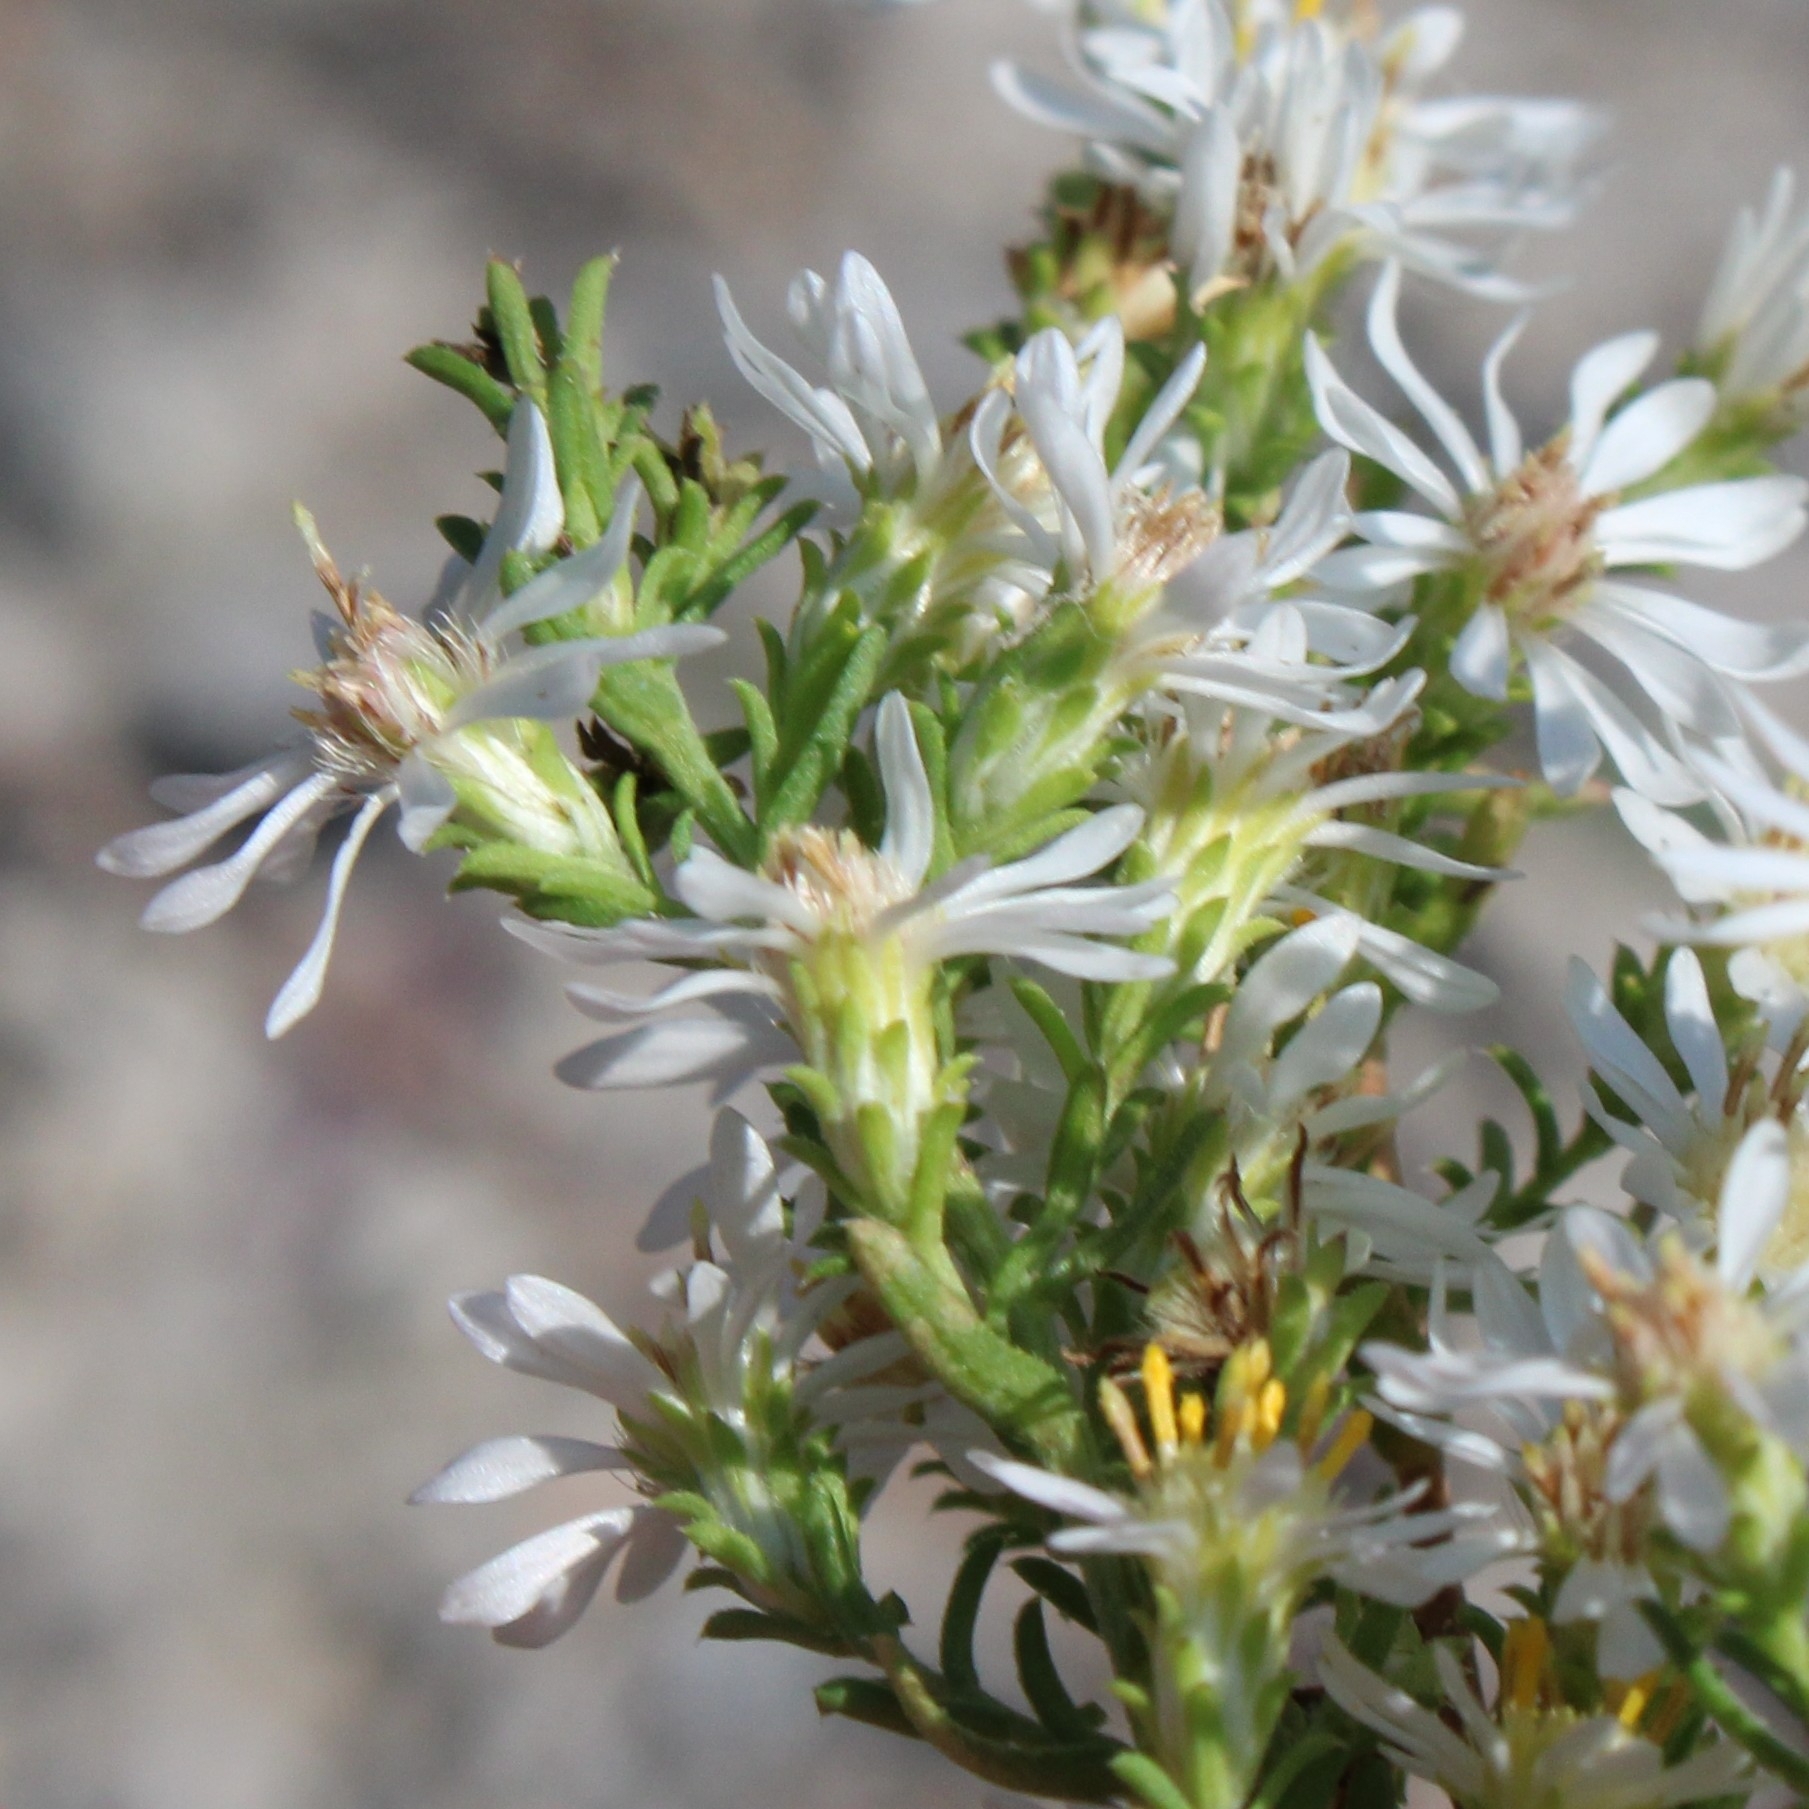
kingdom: Plantae
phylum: Tracheophyta
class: Magnoliopsida
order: Asterales
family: Asteraceae
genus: Symphyotrichum
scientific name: Symphyotrichum ericoides
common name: Heath aster
